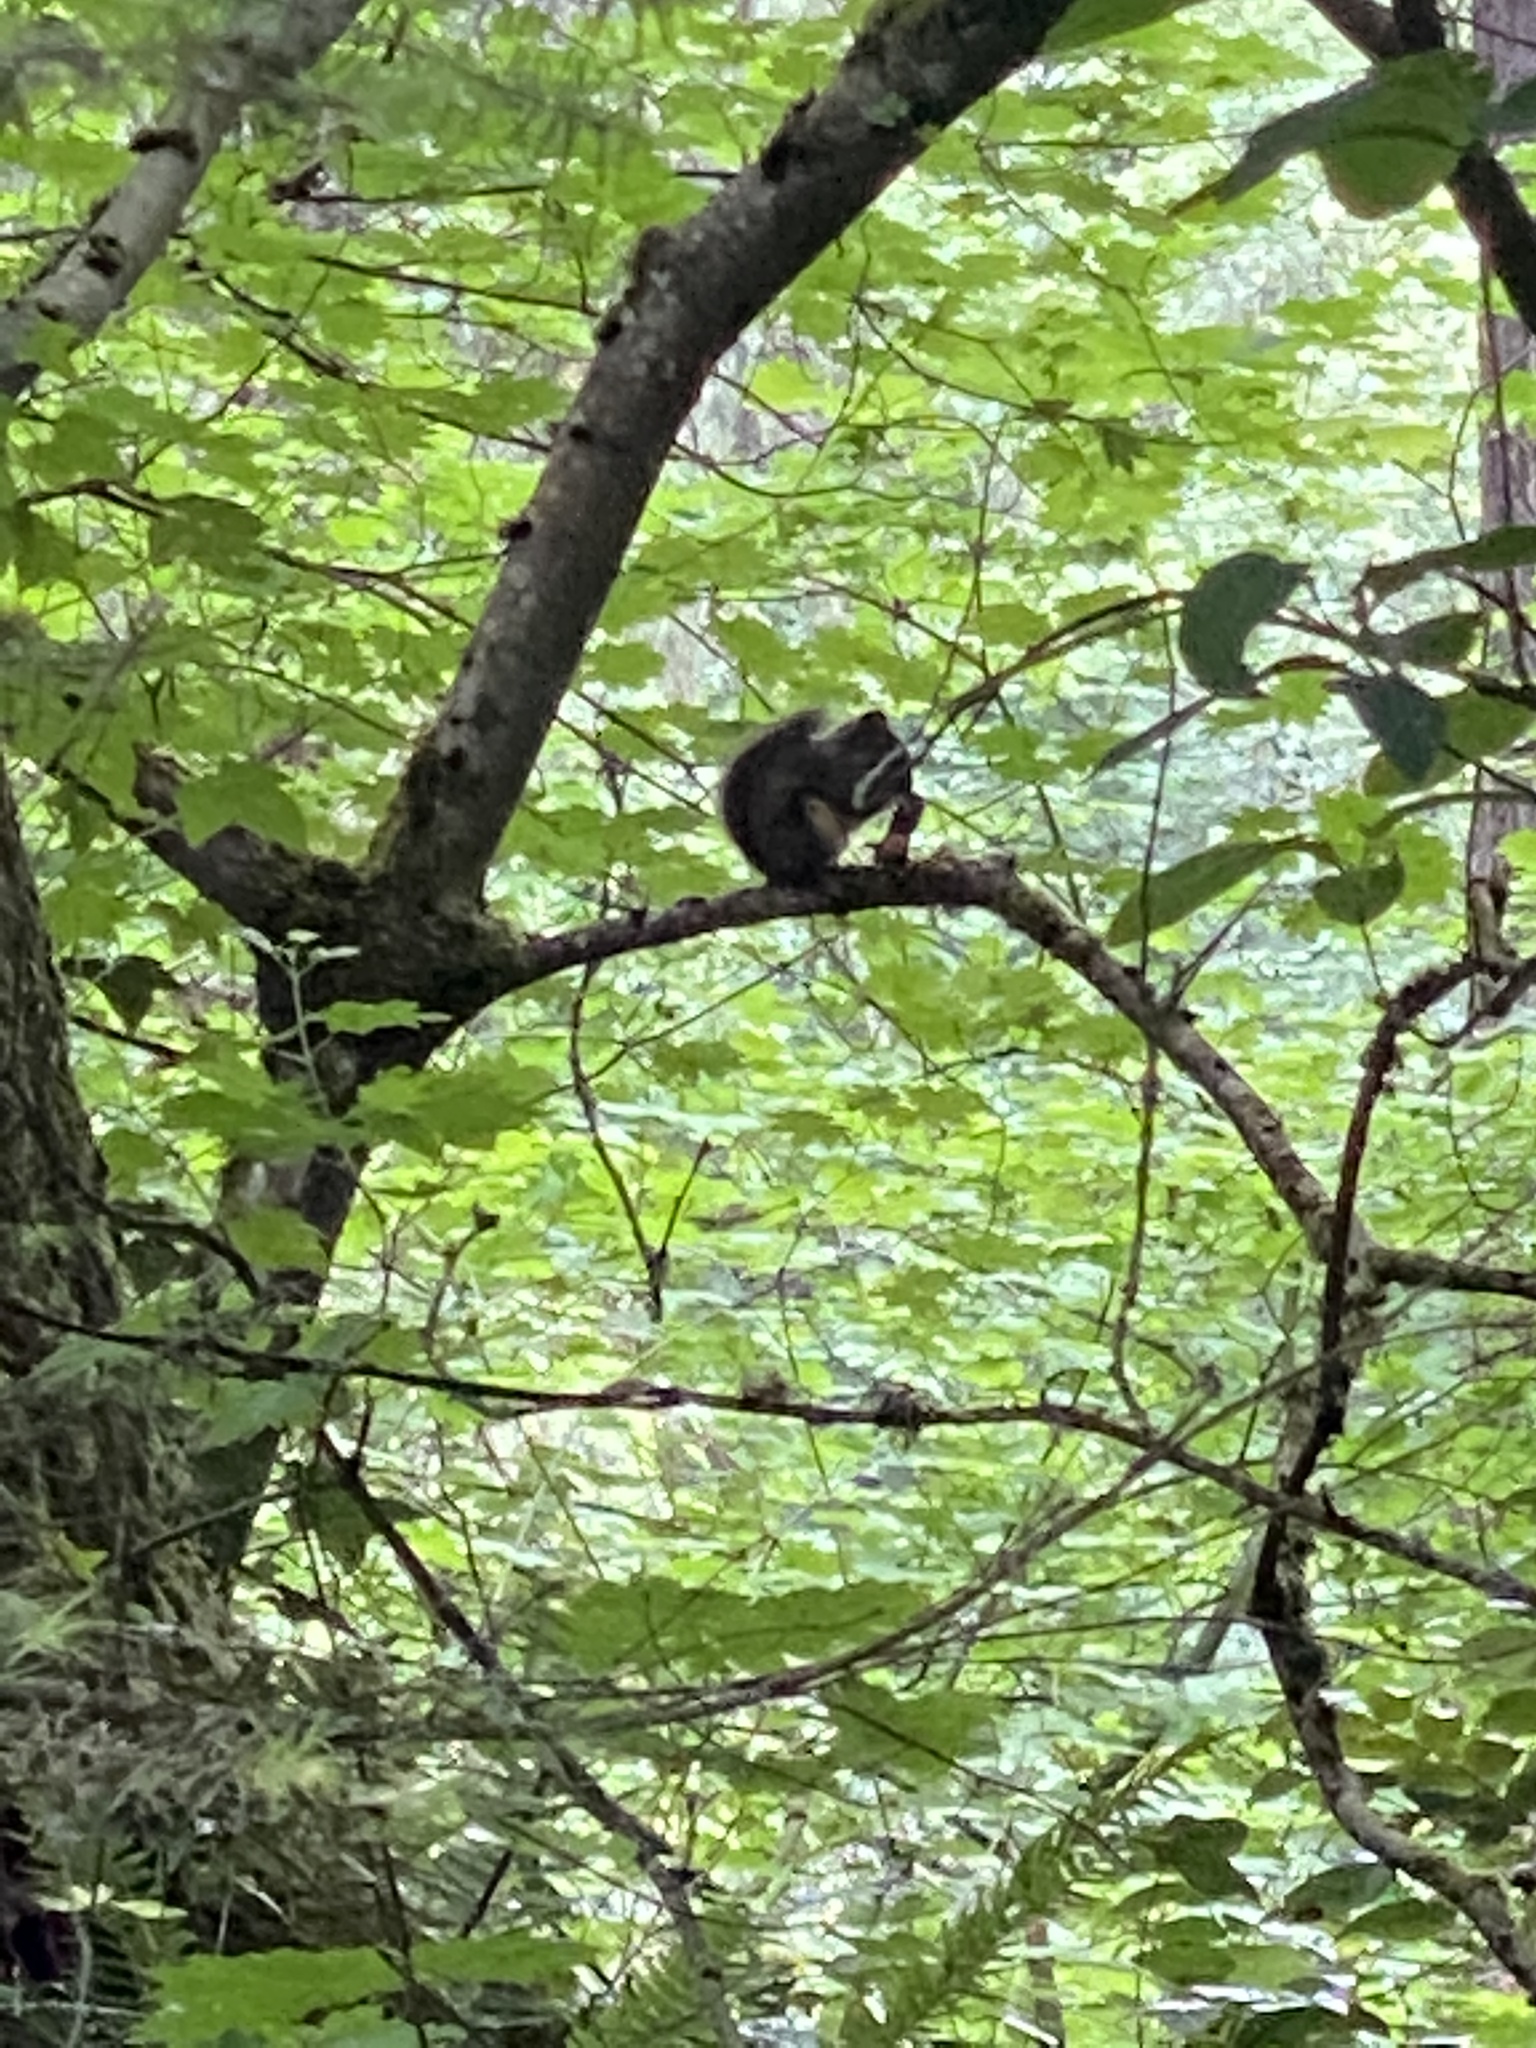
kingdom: Animalia
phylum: Chordata
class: Mammalia
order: Rodentia
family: Sciuridae
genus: Tamiasciurus
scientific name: Tamiasciurus douglasii
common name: Douglas's squirrel
